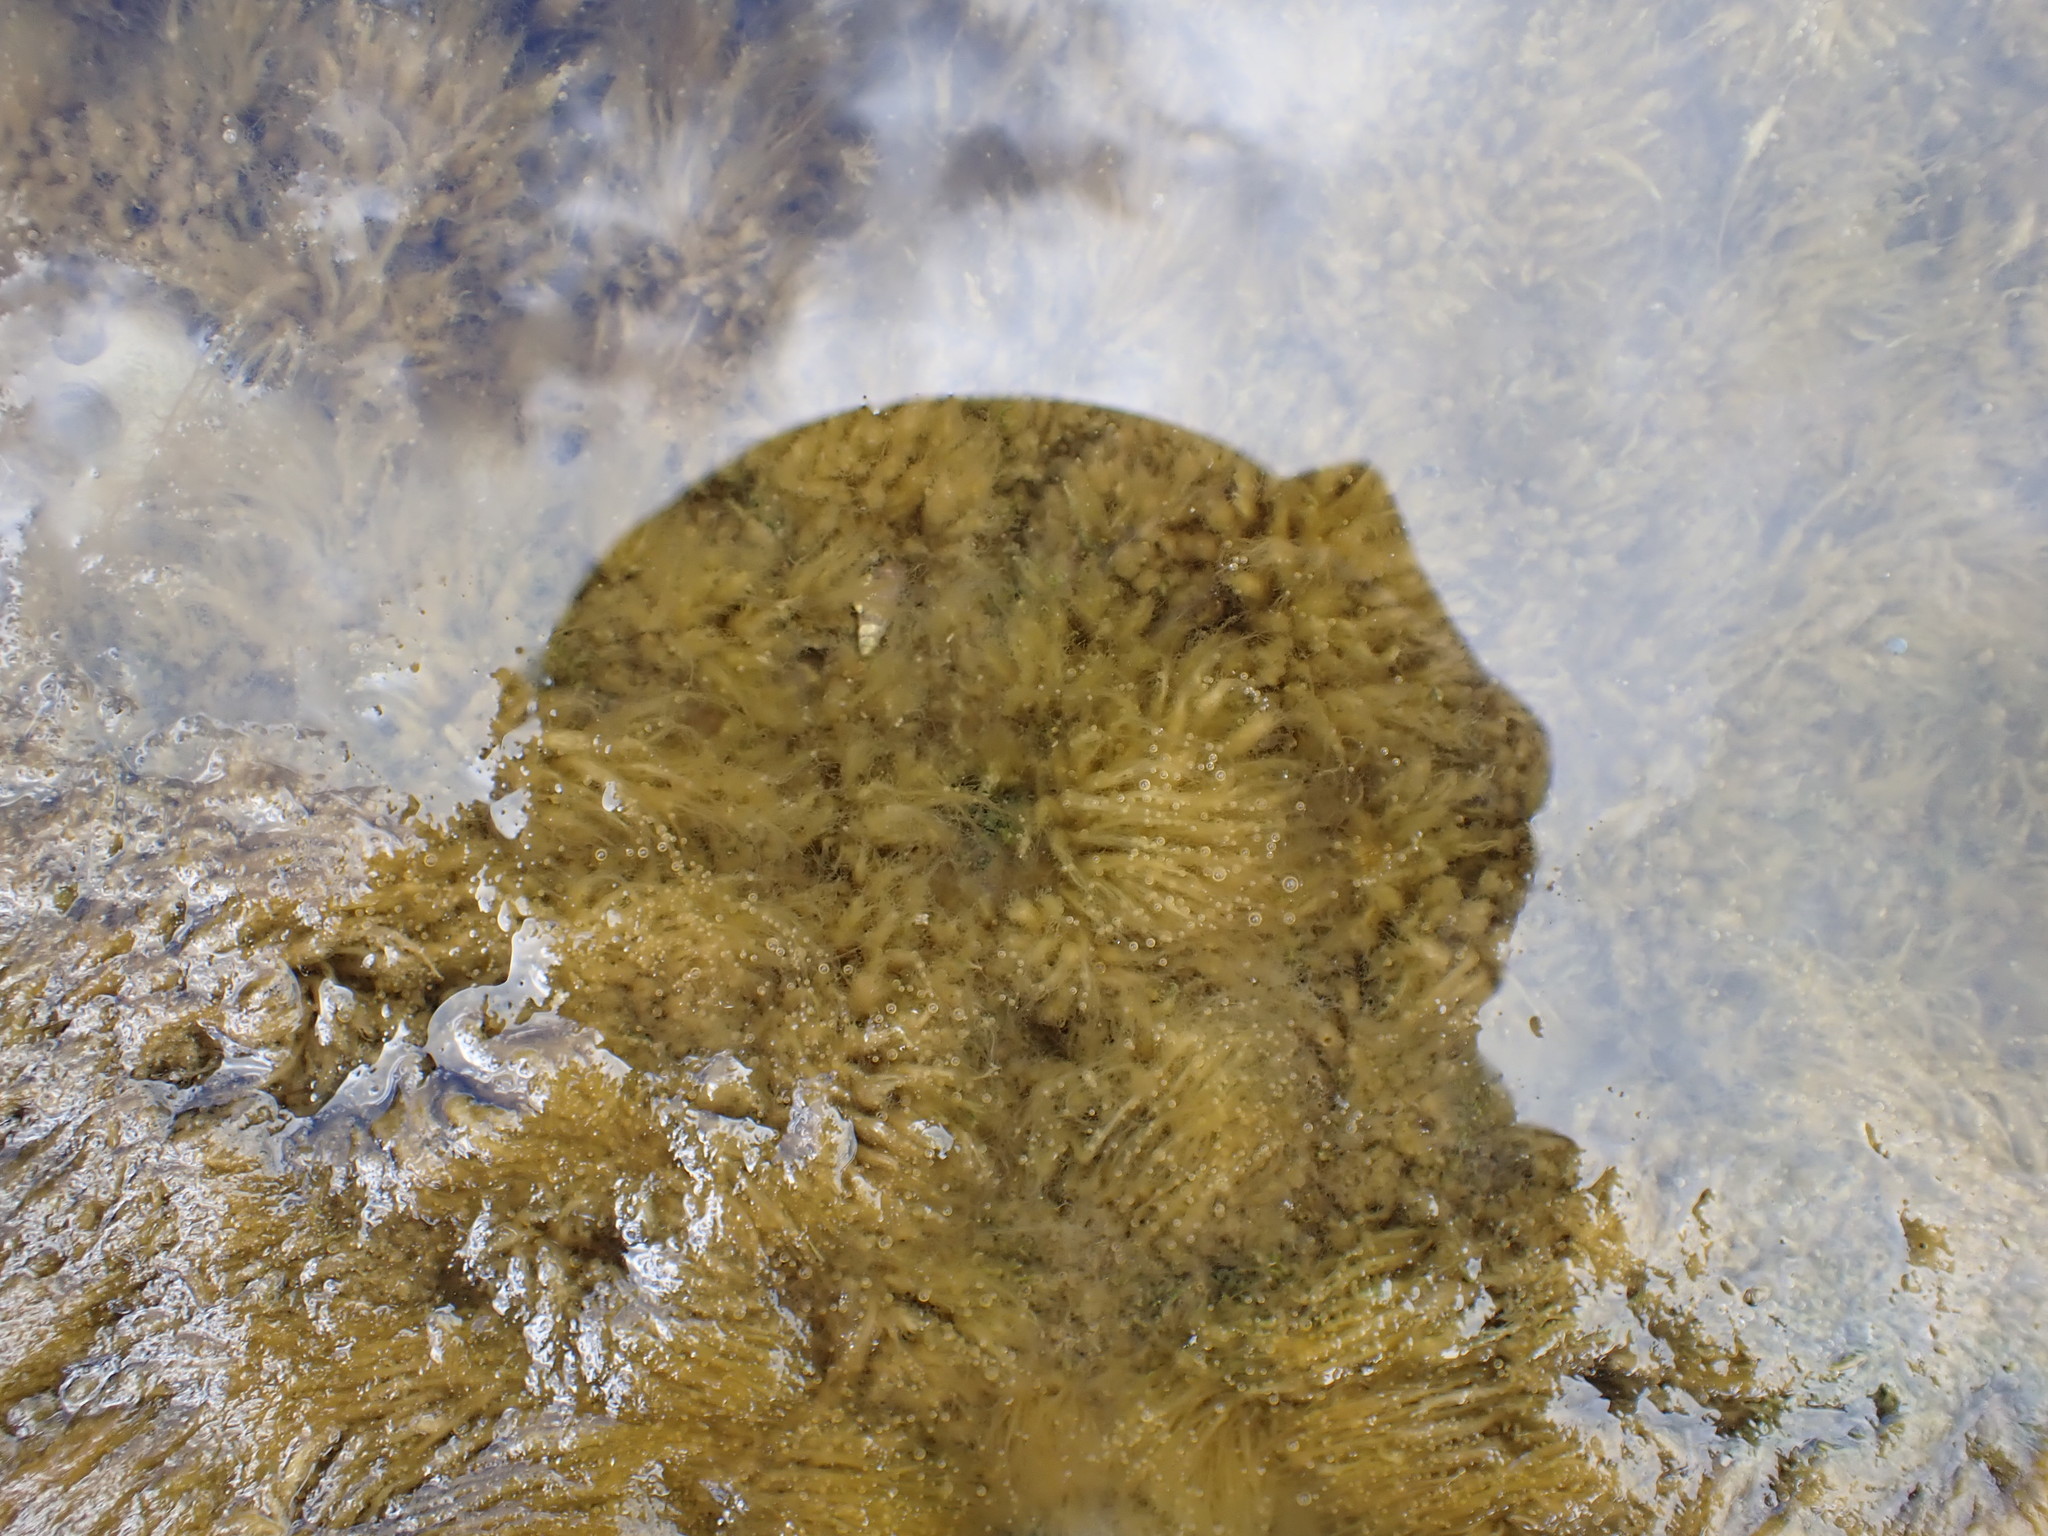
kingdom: Bacteria
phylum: Cyanobacteria
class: Cyanobacteriia
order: Cyanobacteriales
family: Microcoleaceae
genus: Lyngbya
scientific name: Lyngbya majuscula
